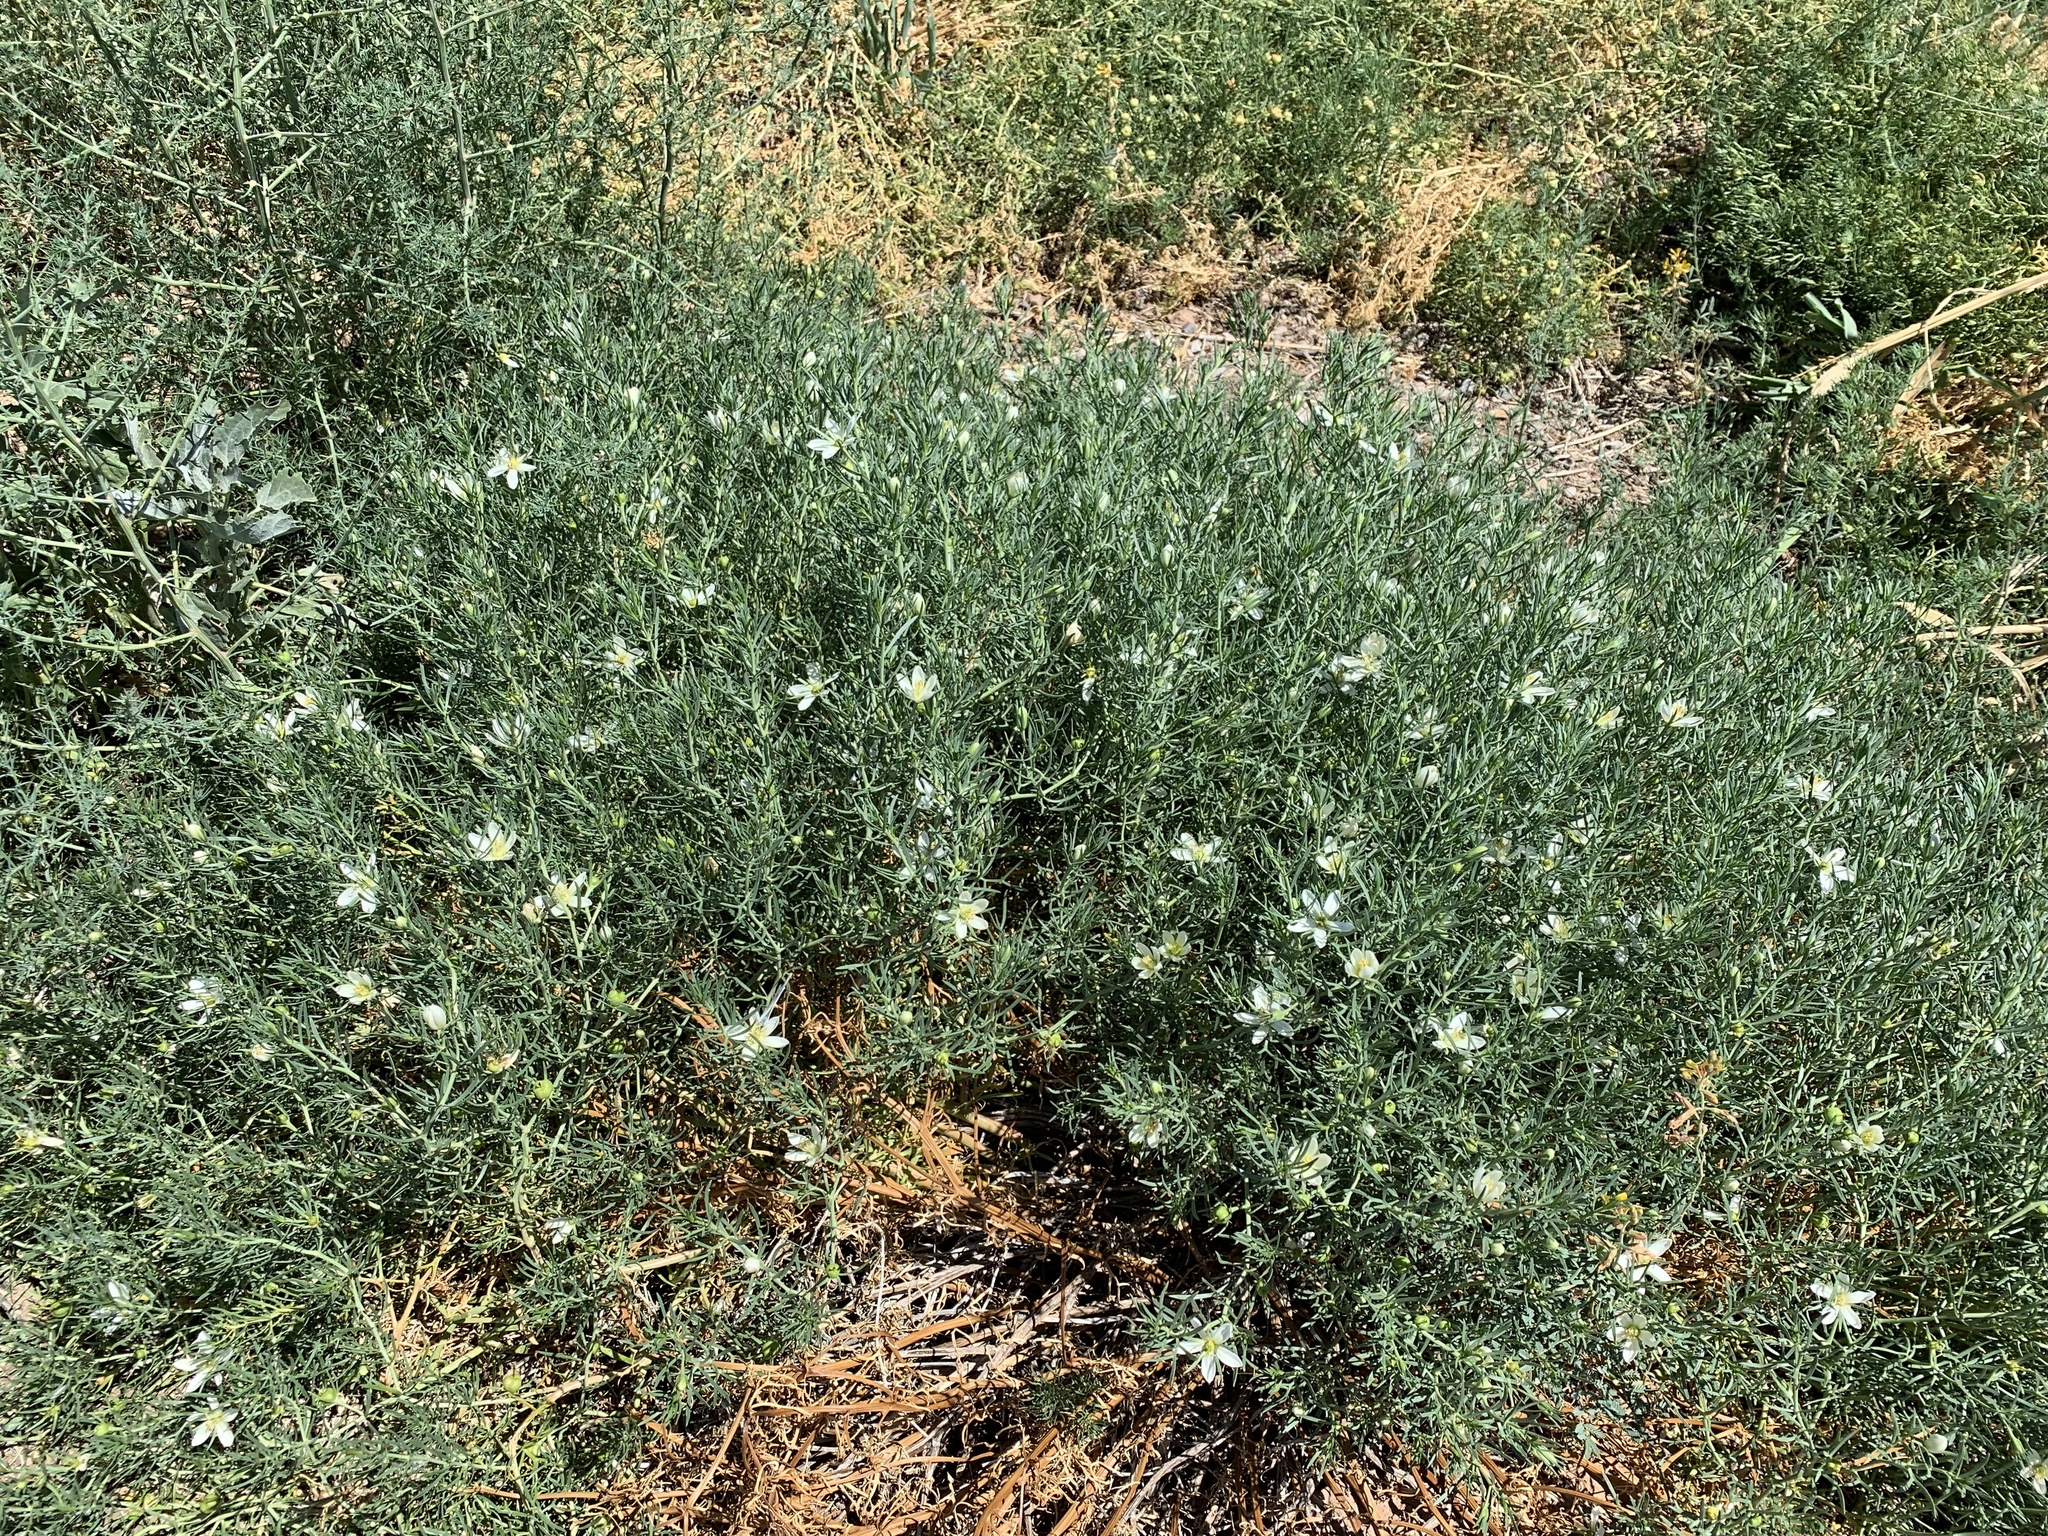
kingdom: Plantae
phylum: Tracheophyta
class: Magnoliopsida
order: Sapindales
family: Tetradiclidaceae
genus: Peganum
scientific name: Peganum harmala
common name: Harmal peganum
